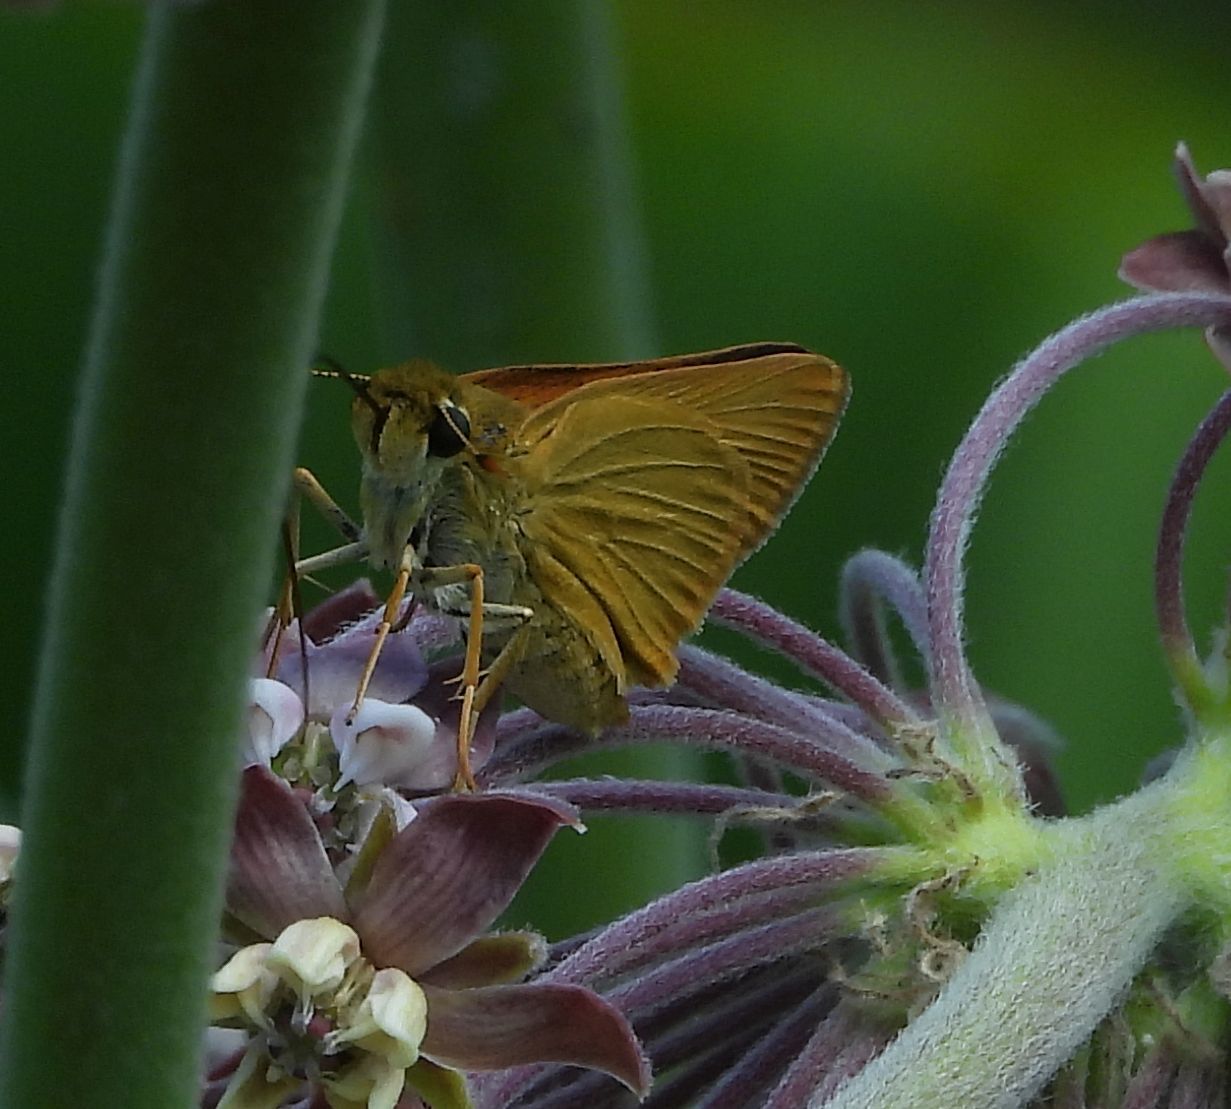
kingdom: Animalia
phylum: Arthropoda
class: Insecta
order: Lepidoptera
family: Hesperiidae
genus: Atrytone
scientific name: Atrytone delaware
